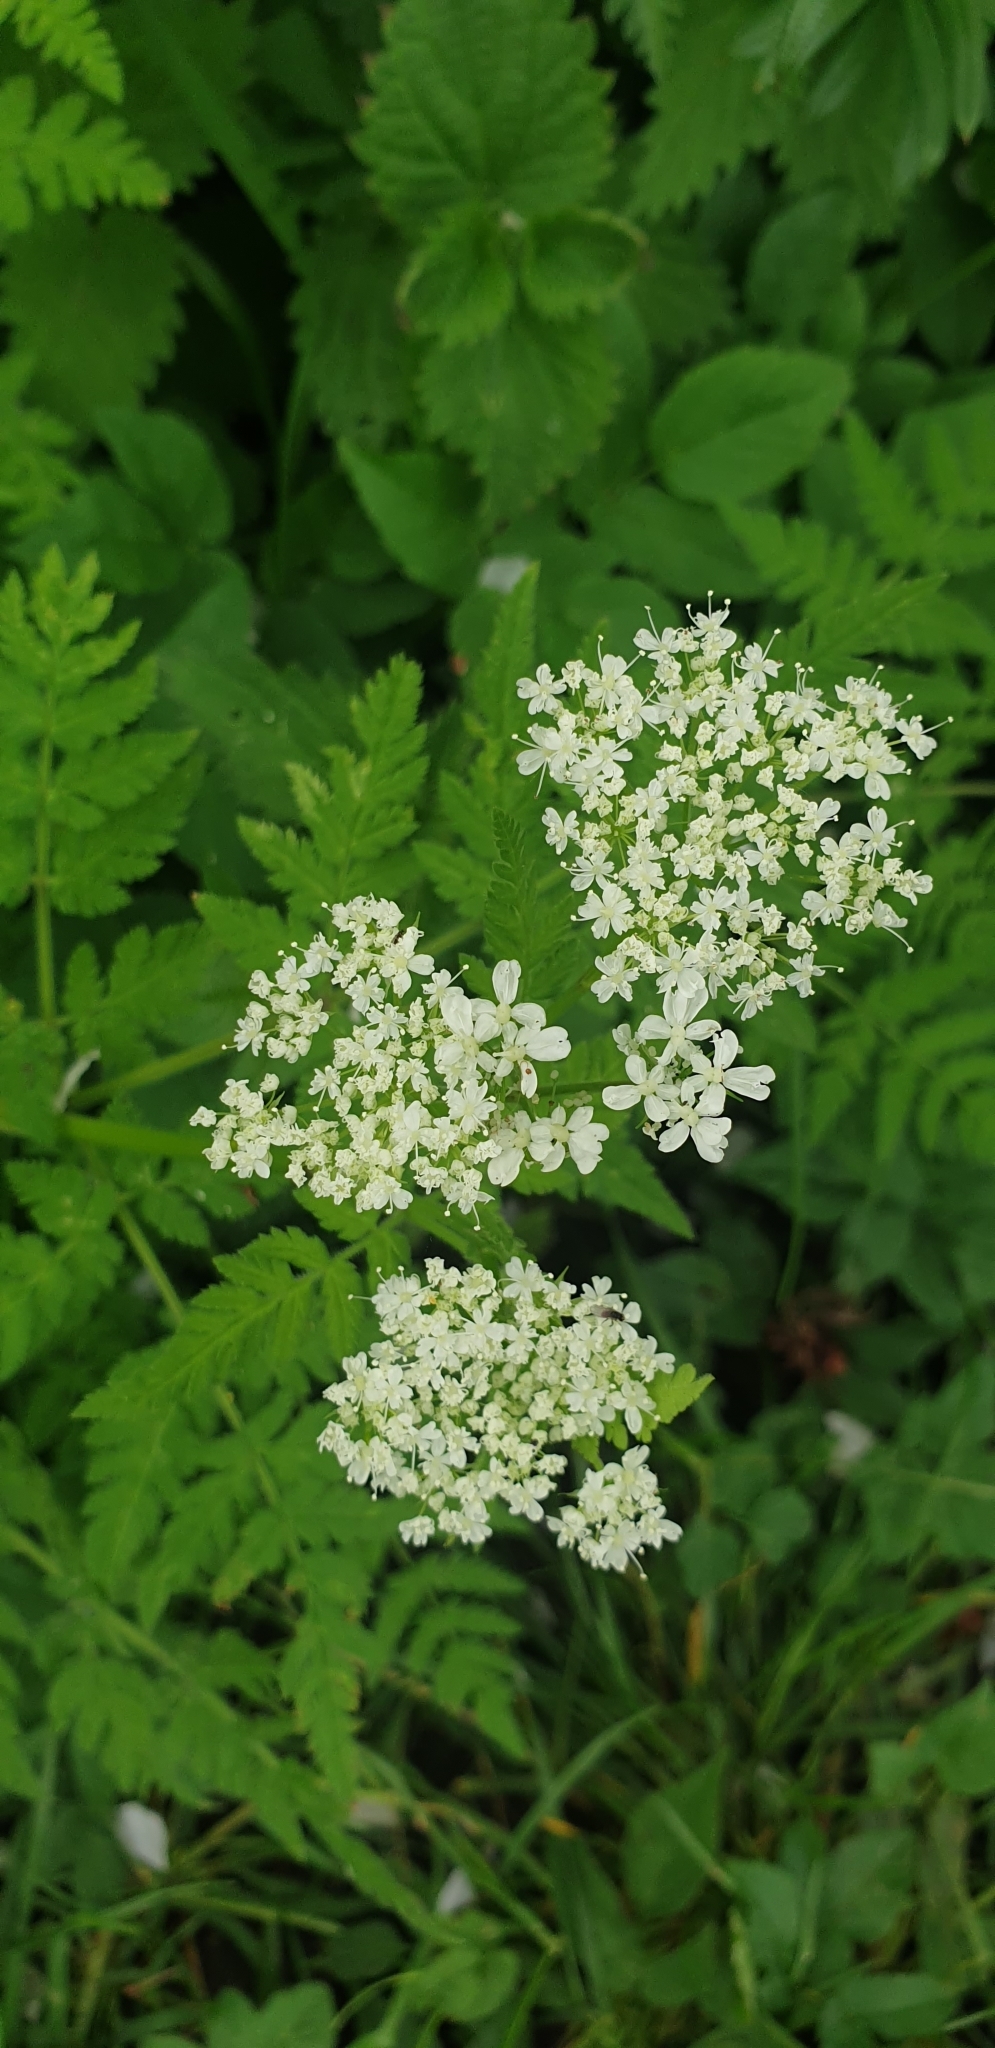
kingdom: Plantae
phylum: Tracheophyta
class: Magnoliopsida
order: Apiales
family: Apiaceae
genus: Myrrhis
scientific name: Myrrhis odorata
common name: Sweet cicely
